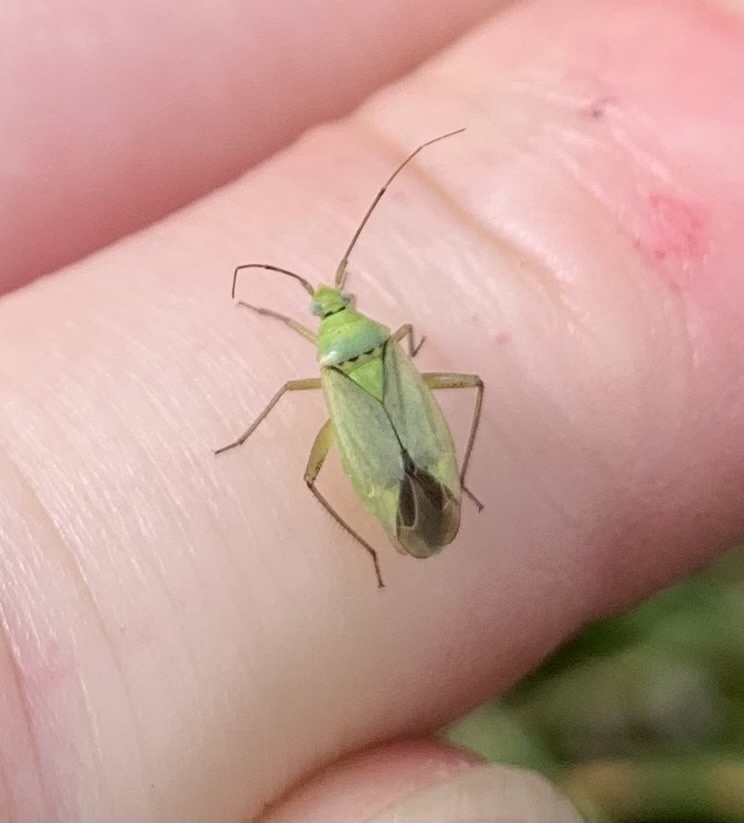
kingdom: Animalia
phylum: Arthropoda
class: Insecta
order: Hemiptera
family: Miridae
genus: Closterotomus
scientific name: Closterotomus norvegicus
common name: Plant bug
